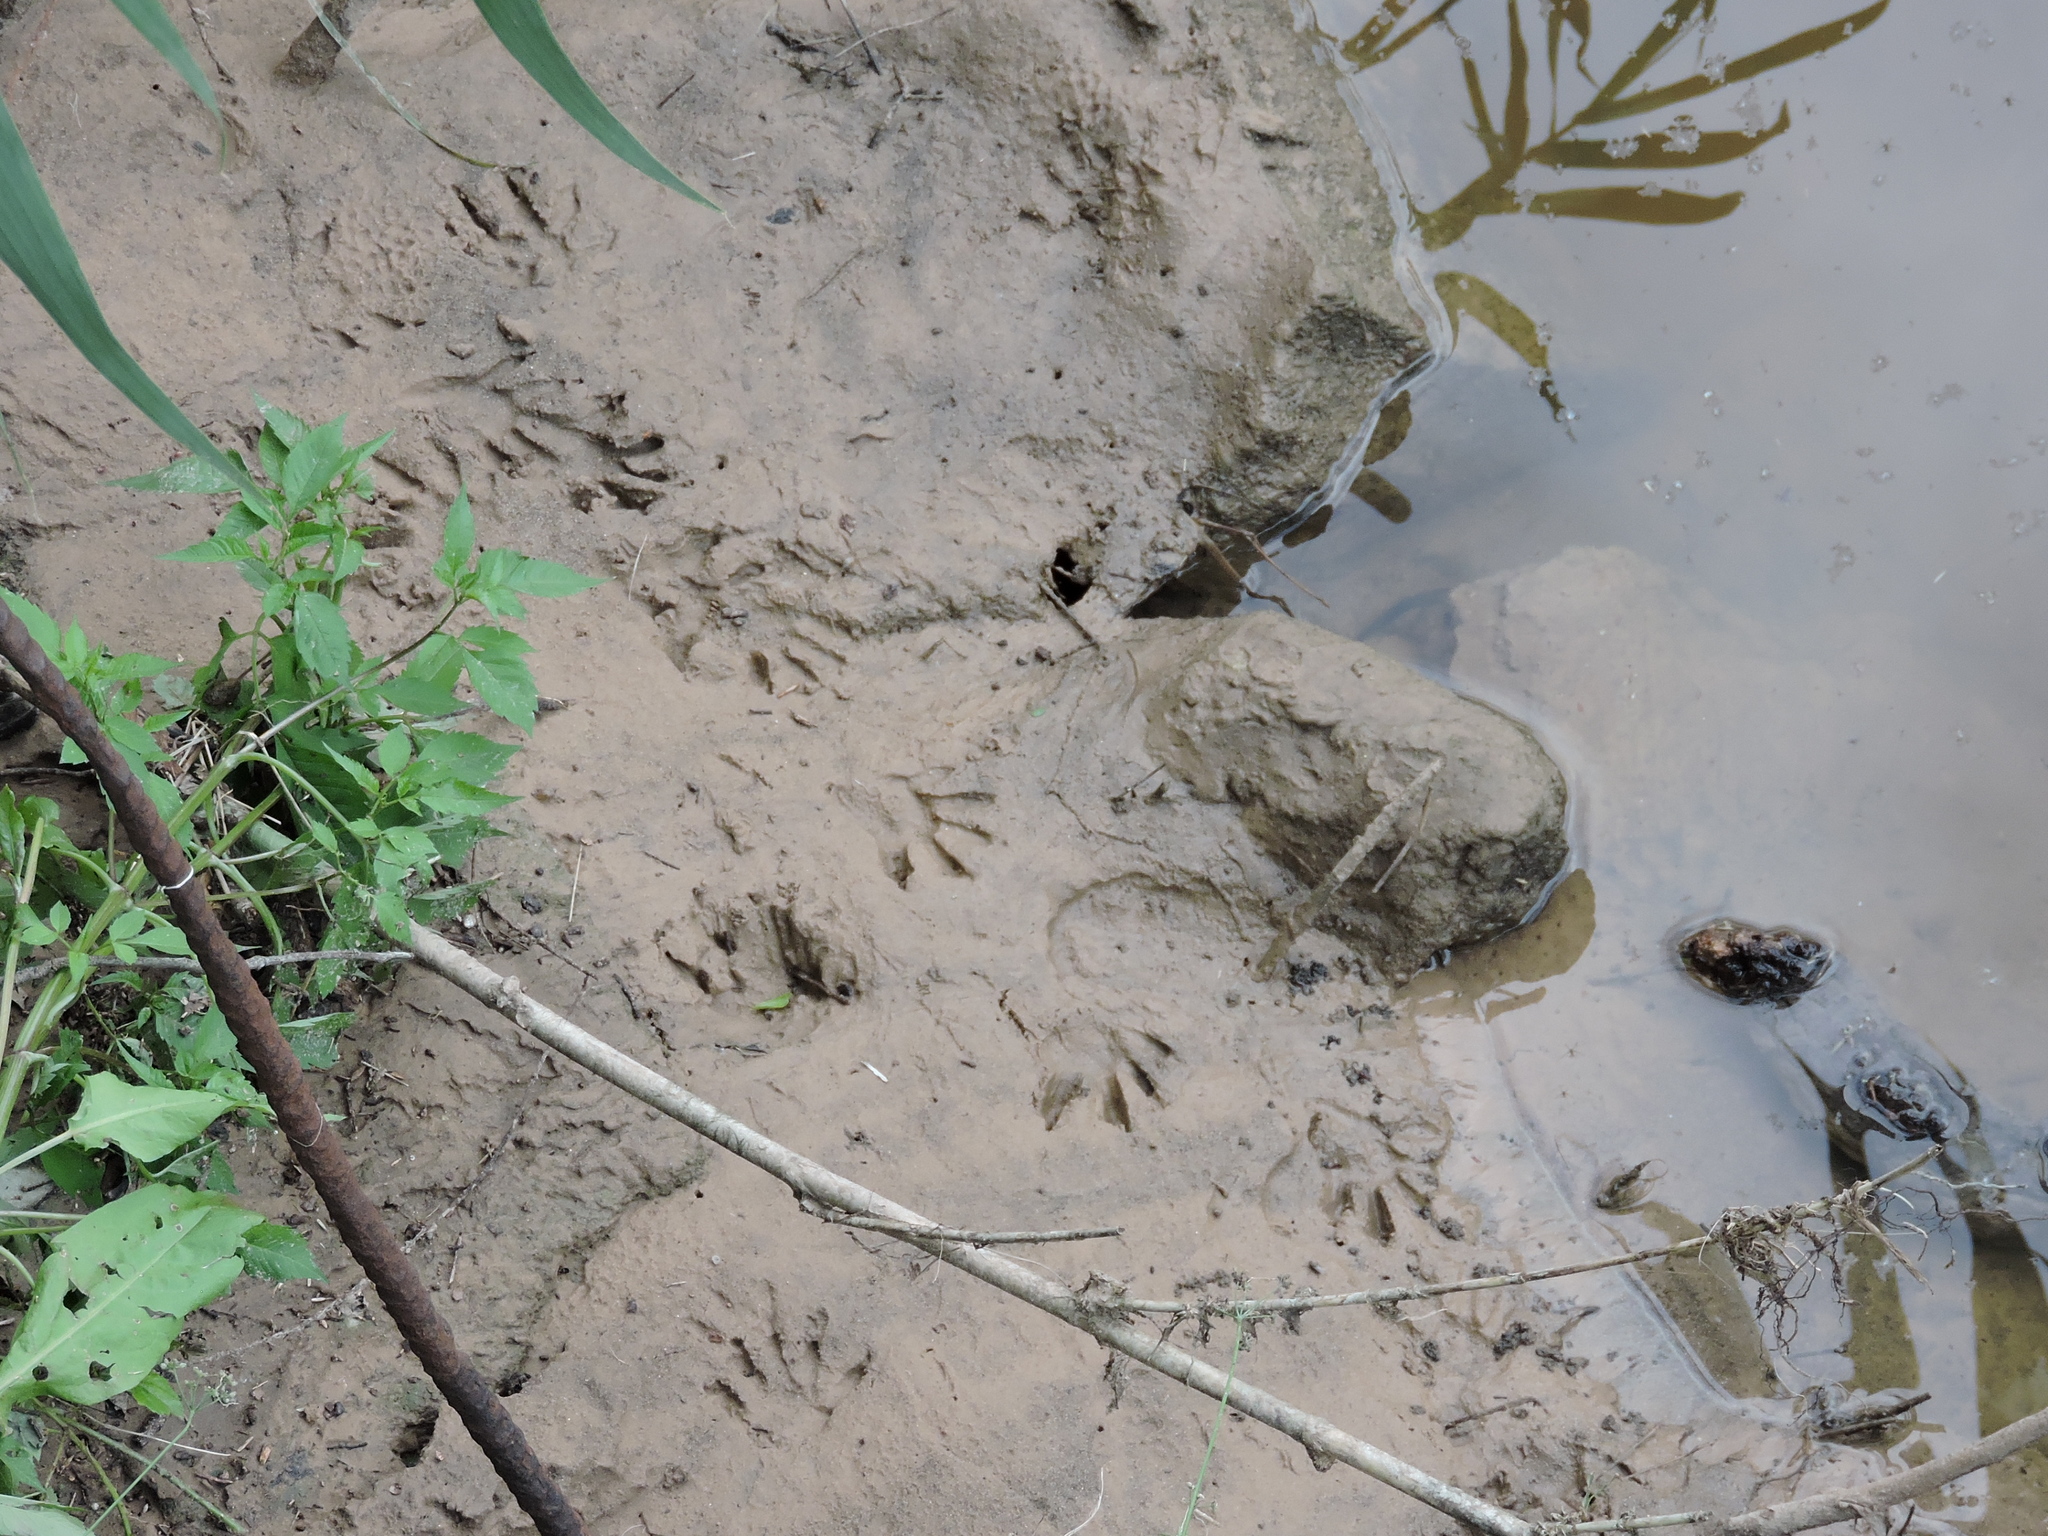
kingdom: Animalia
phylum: Chordata
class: Mammalia
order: Carnivora
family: Procyonidae
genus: Procyon
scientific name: Procyon lotor
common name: Raccoon
